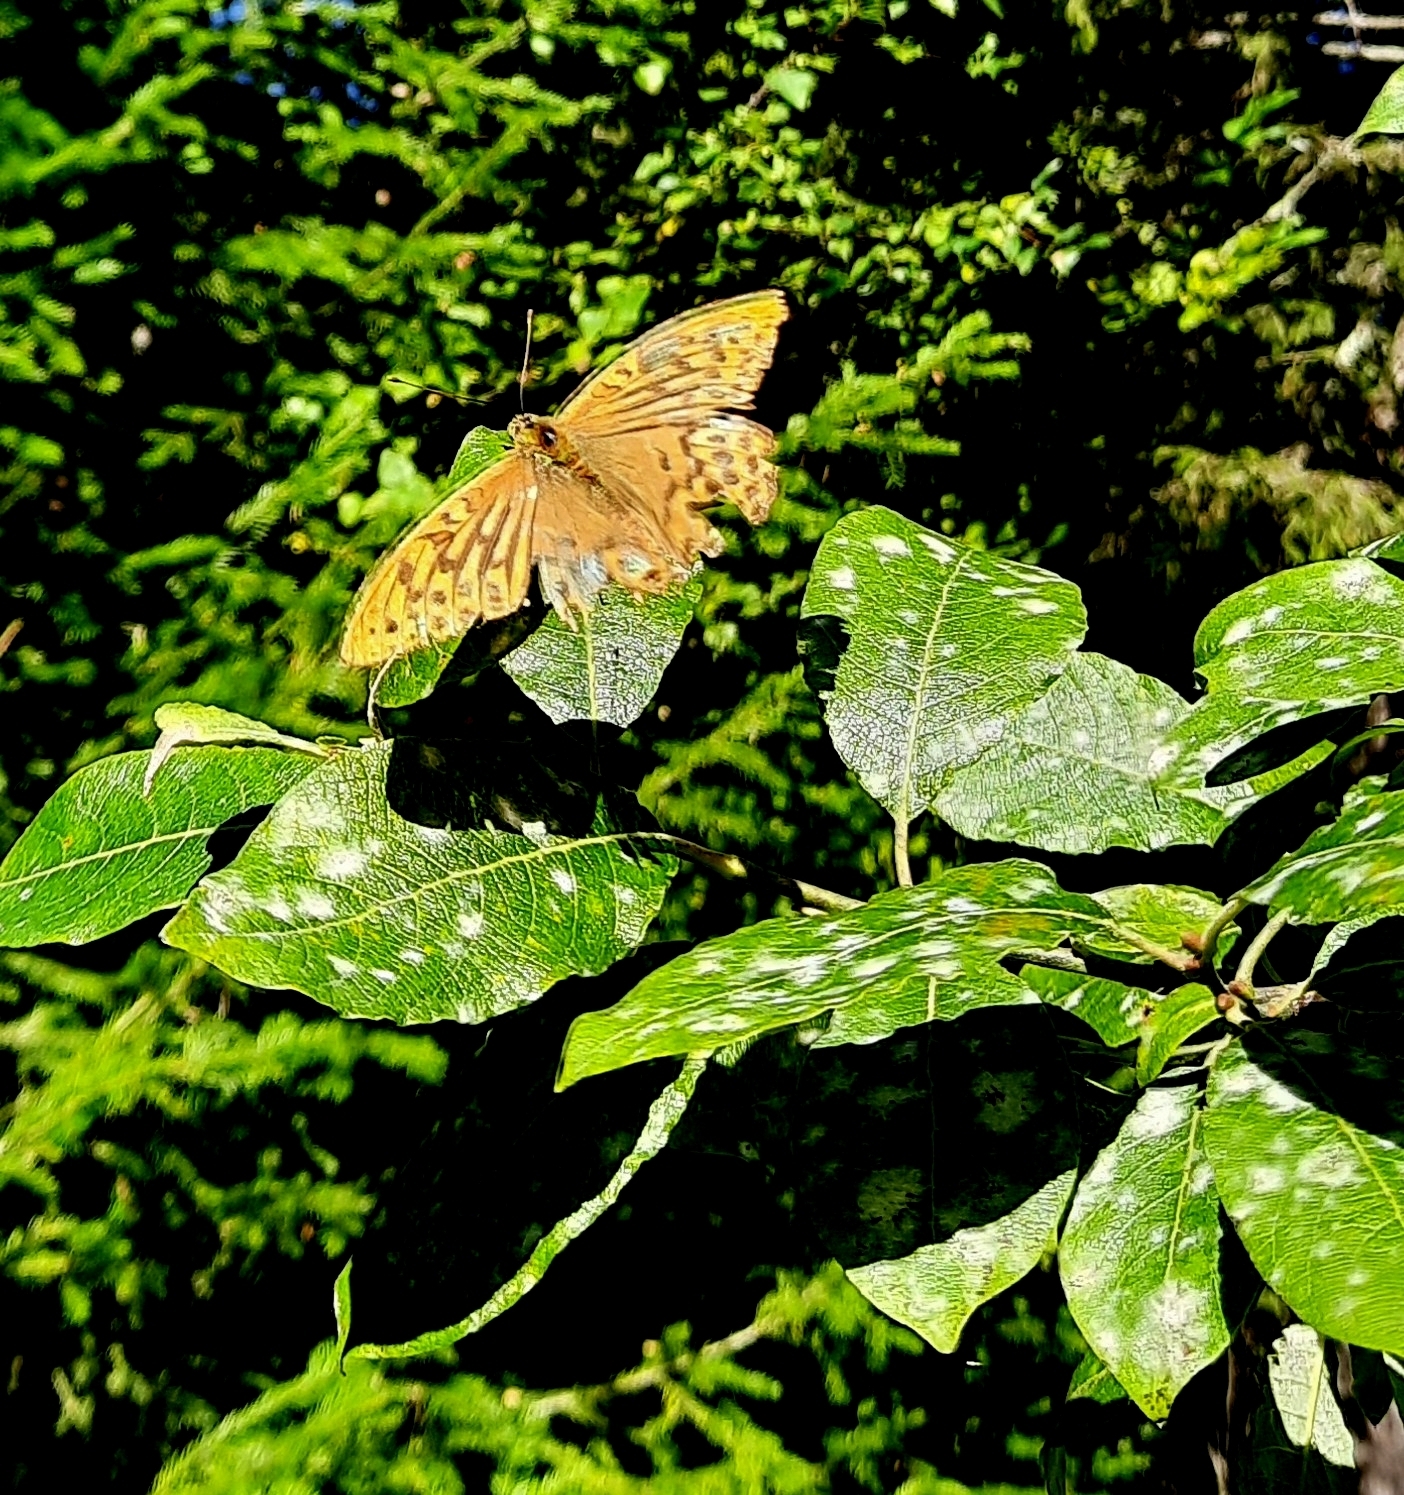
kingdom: Animalia
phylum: Arthropoda
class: Insecta
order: Lepidoptera
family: Nymphalidae
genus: Argynnis
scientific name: Argynnis paphia
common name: Silver-washed fritillary
